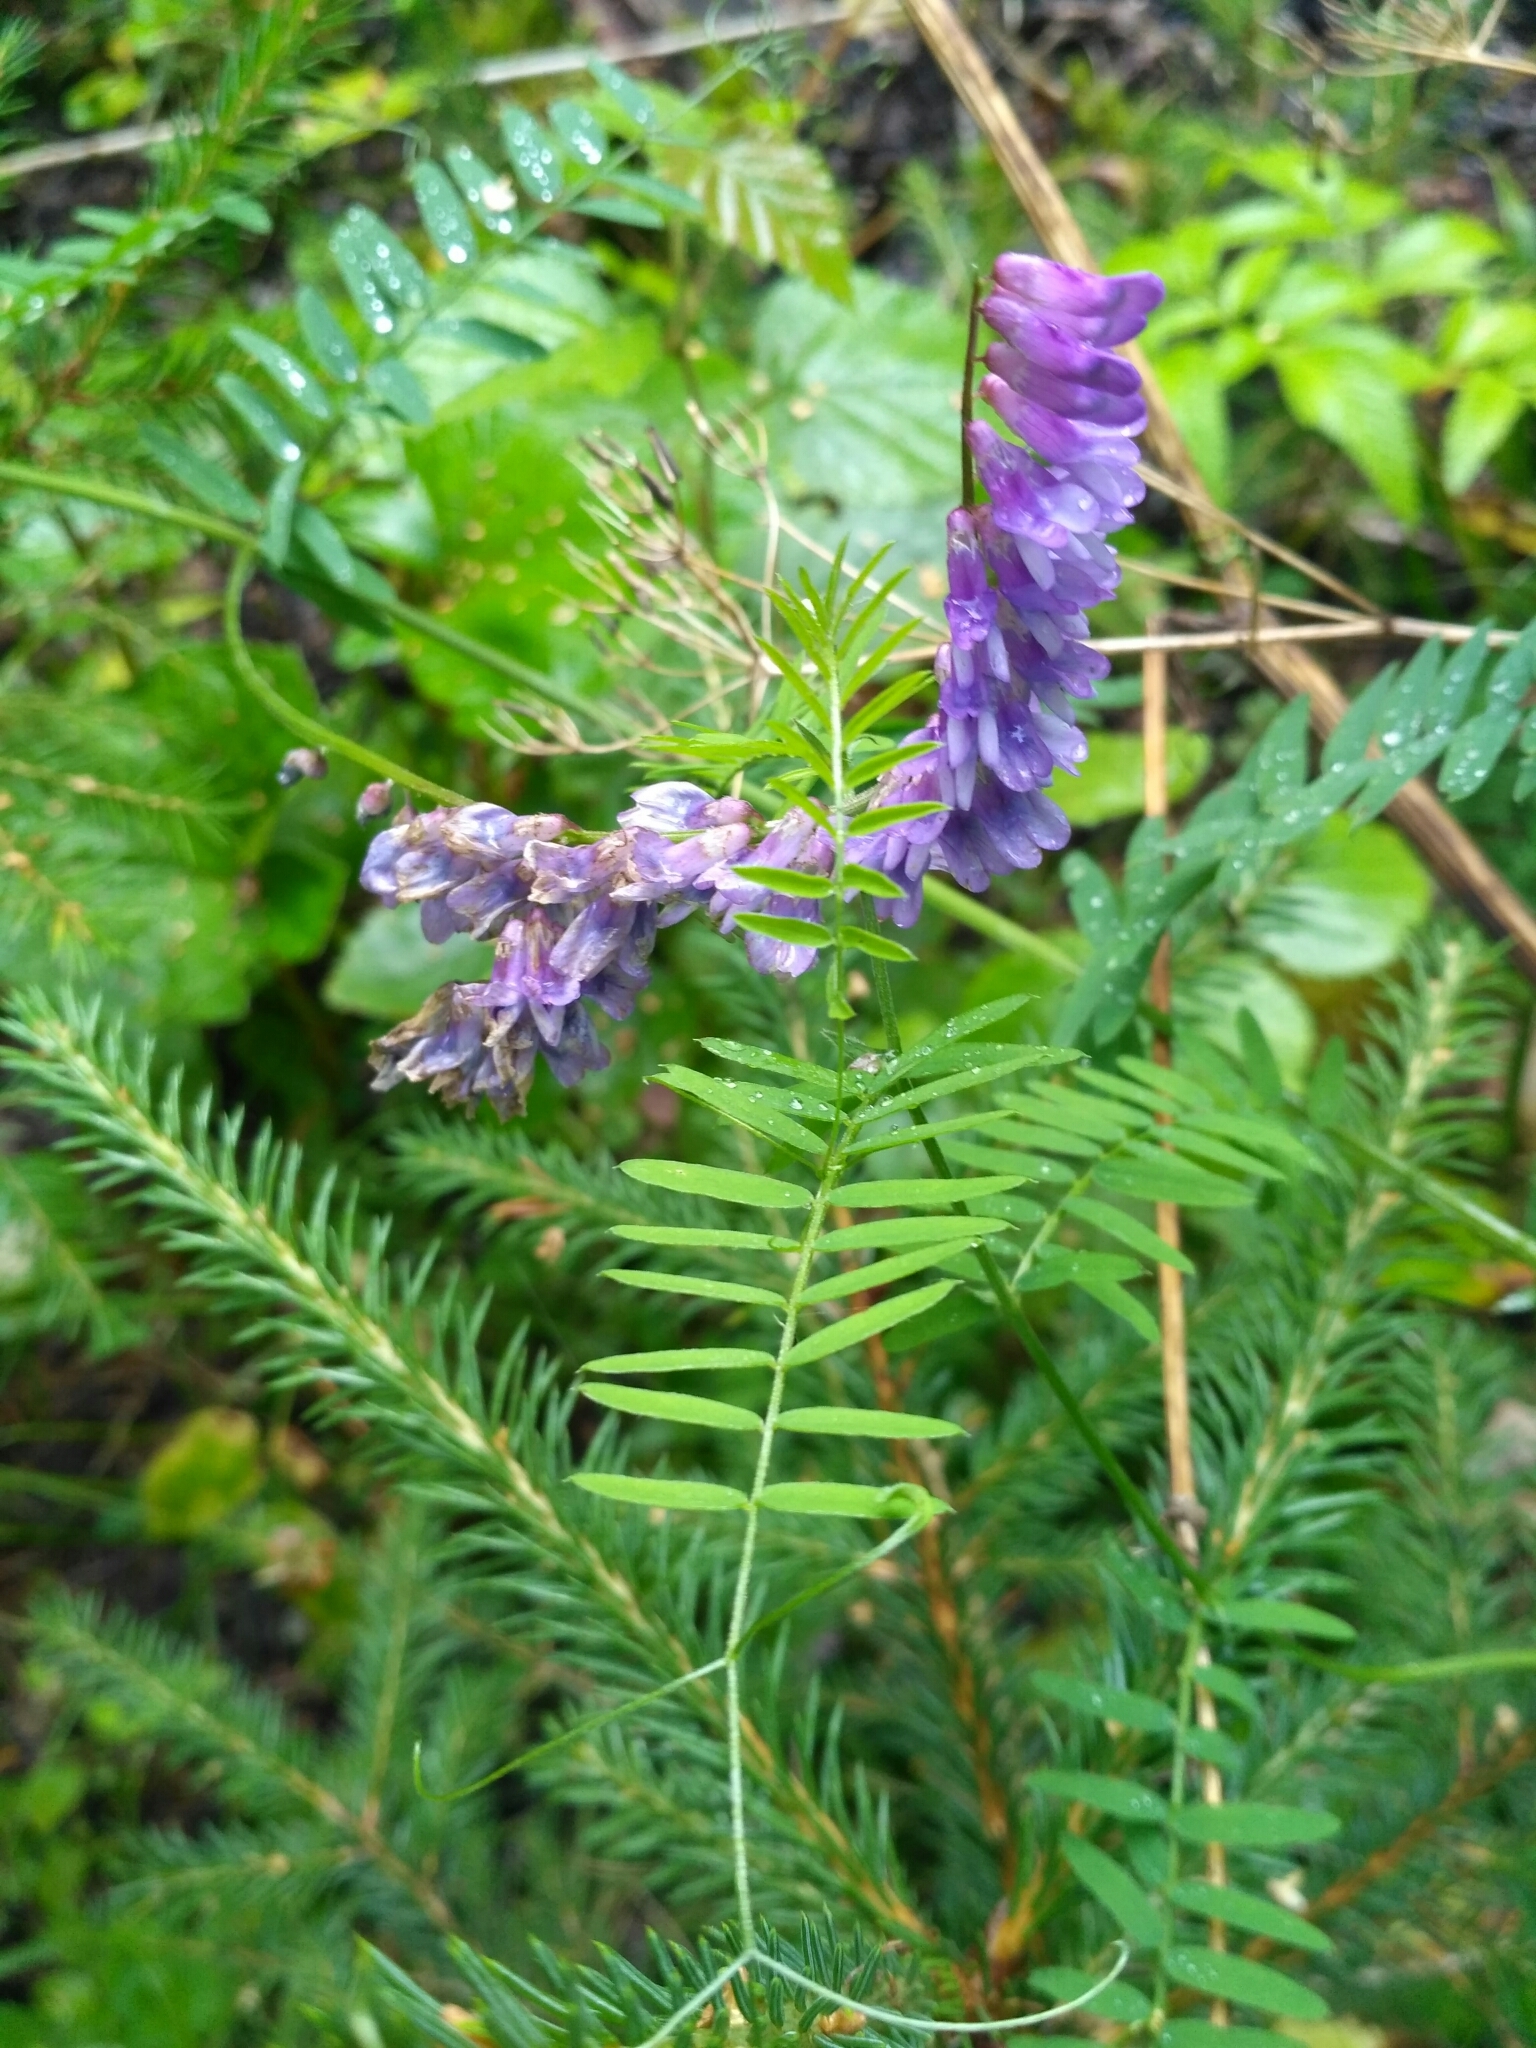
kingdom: Plantae
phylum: Tracheophyta
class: Magnoliopsida
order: Fabales
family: Fabaceae
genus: Vicia
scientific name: Vicia cracca
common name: Bird vetch
